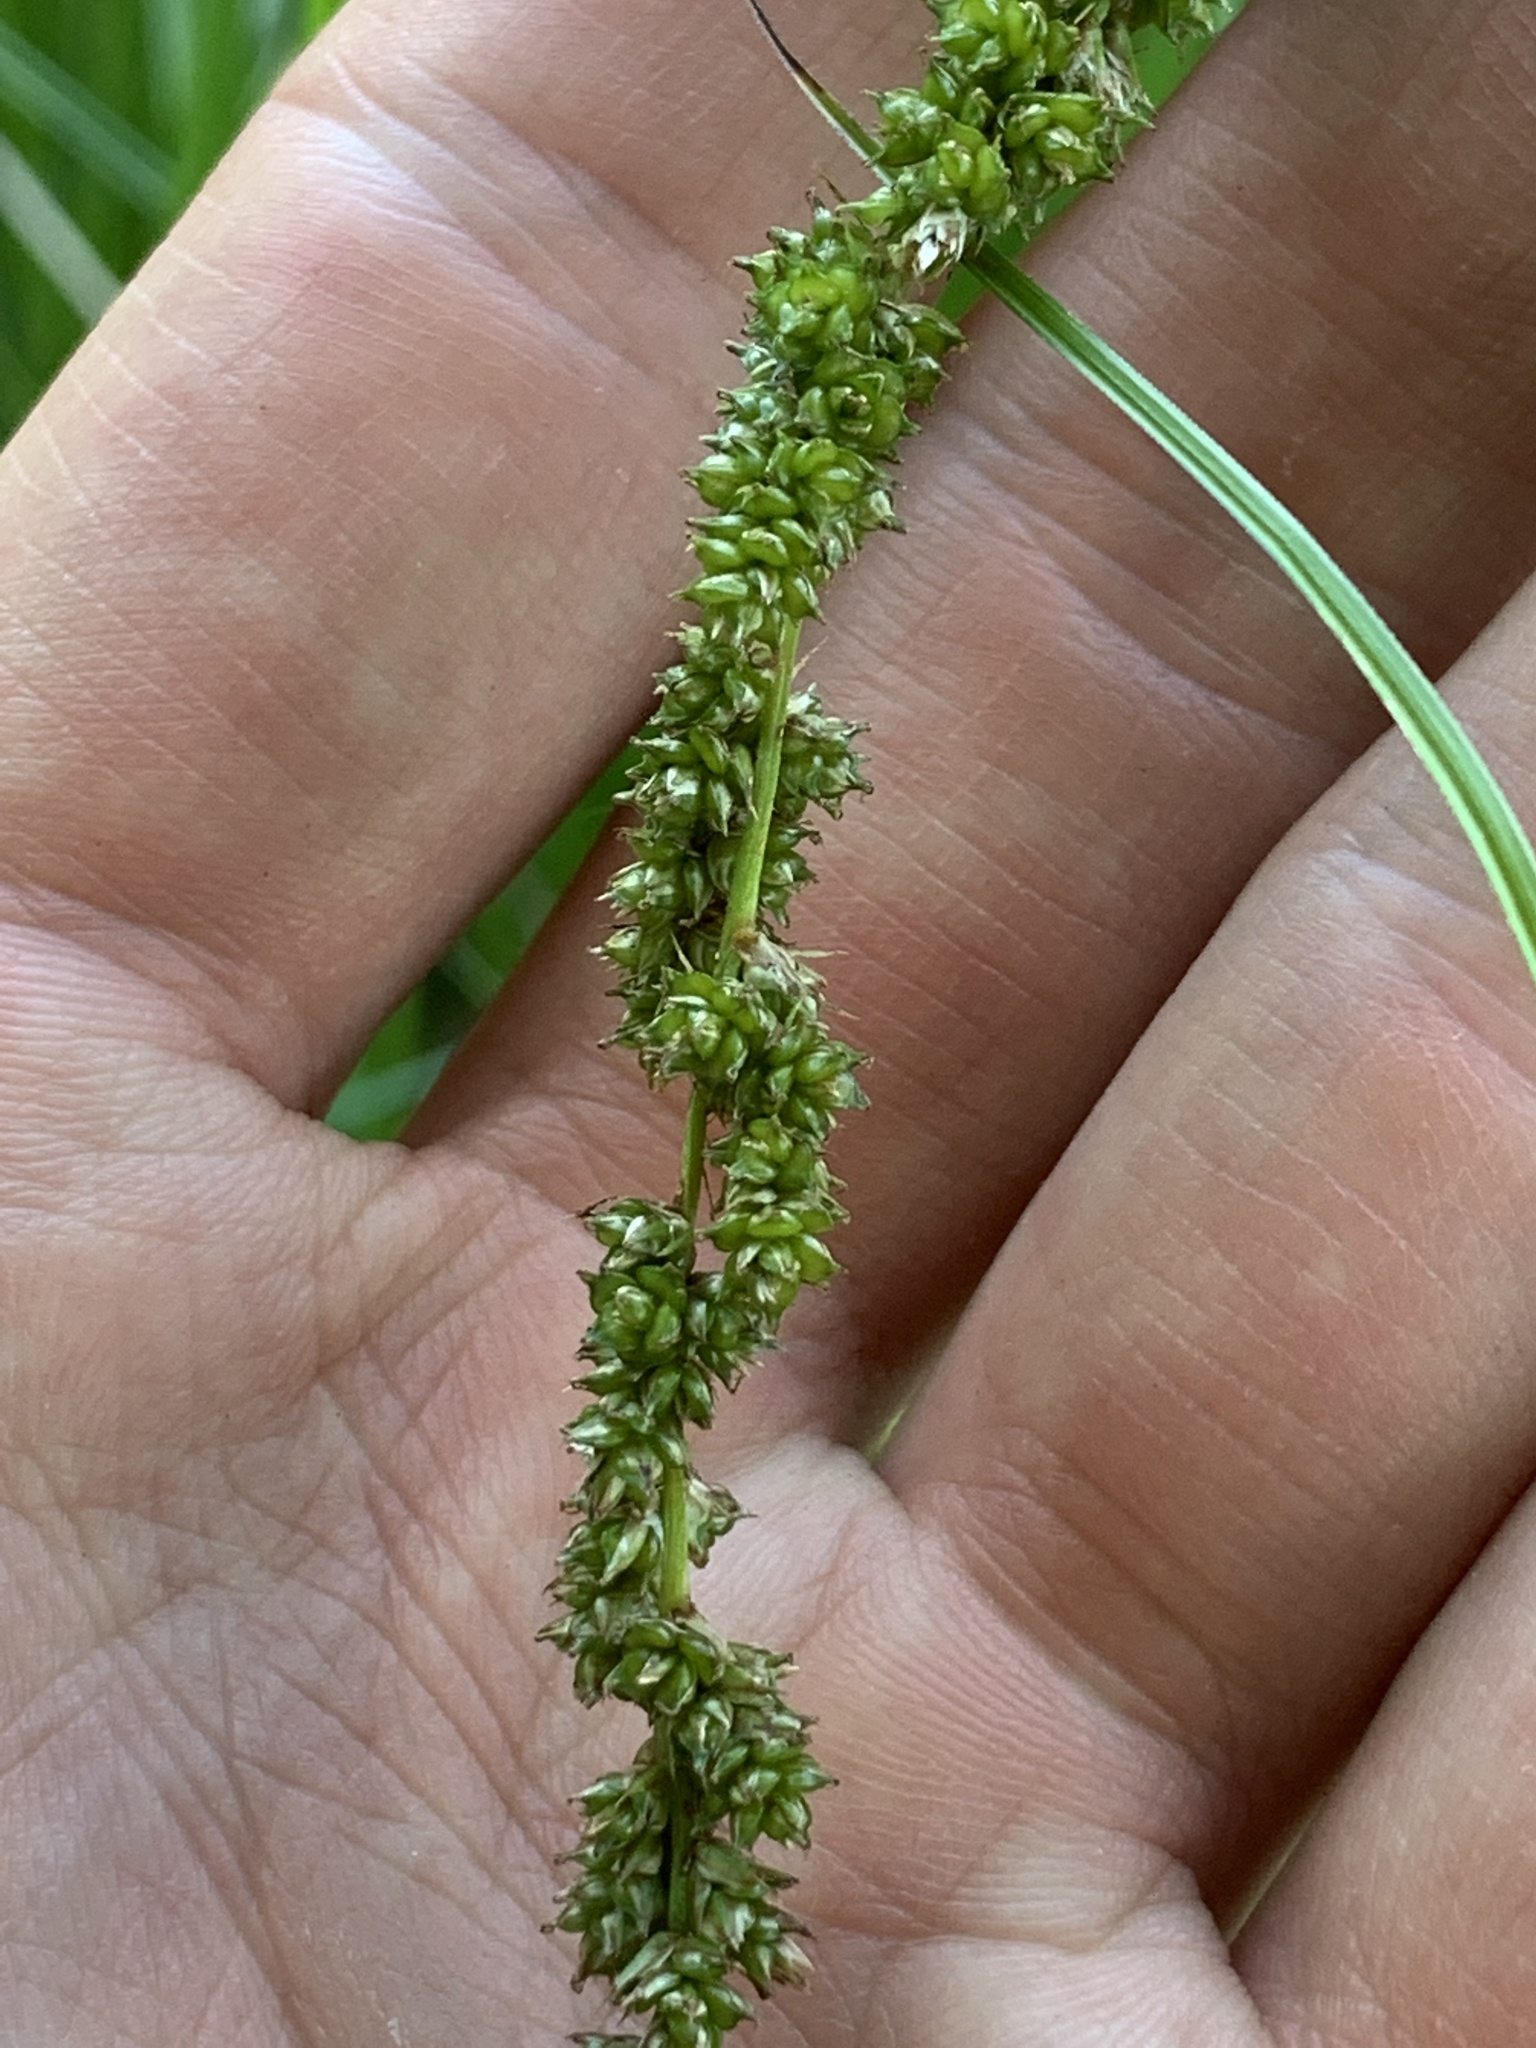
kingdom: Plantae
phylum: Tracheophyta
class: Liliopsida
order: Poales
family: Cyperaceae
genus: Carex
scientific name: Carex decomposita
